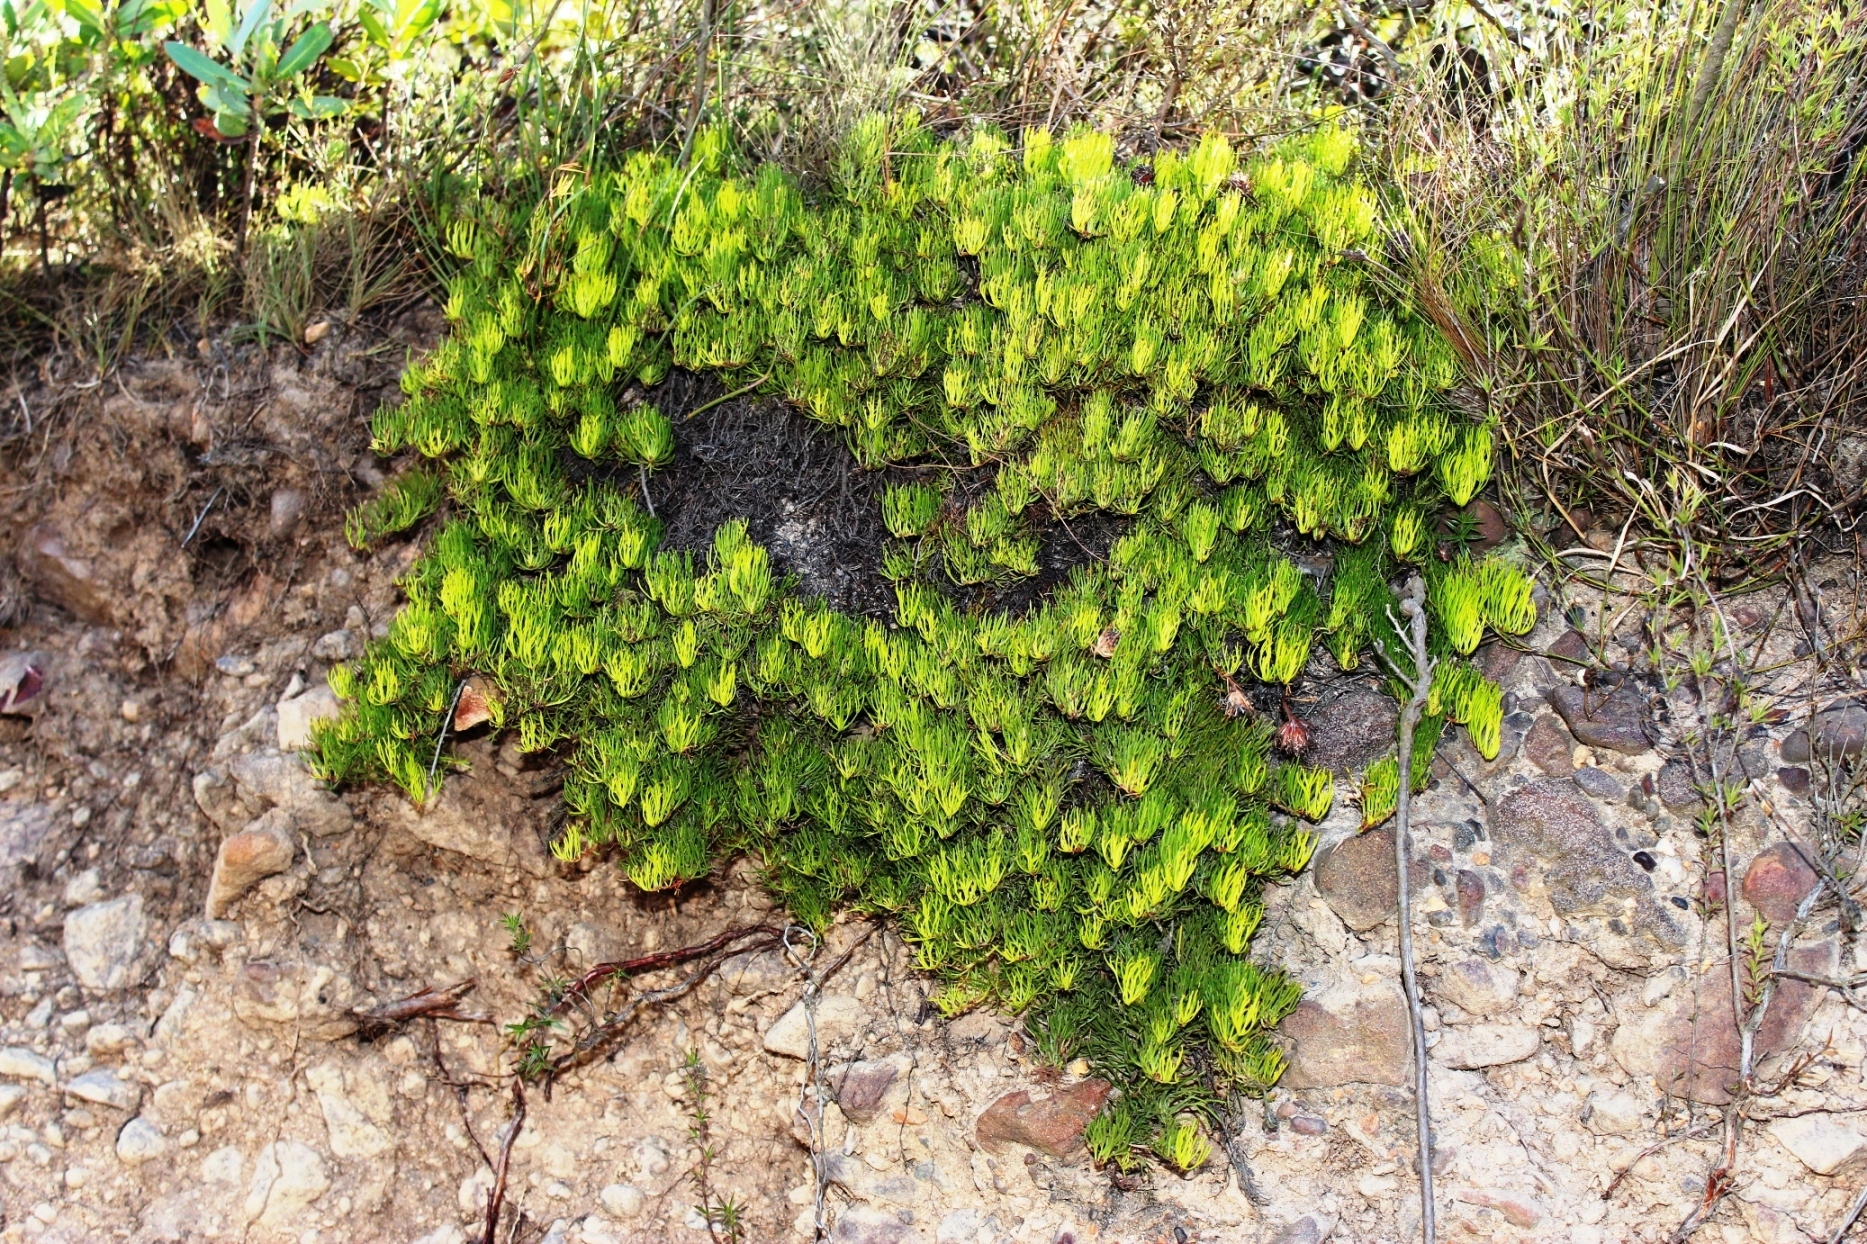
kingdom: Plantae
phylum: Tracheophyta
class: Magnoliopsida
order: Proteales
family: Proteaceae
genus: Serruria
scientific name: Serruria phylicoides
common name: Bearded spiderhead
